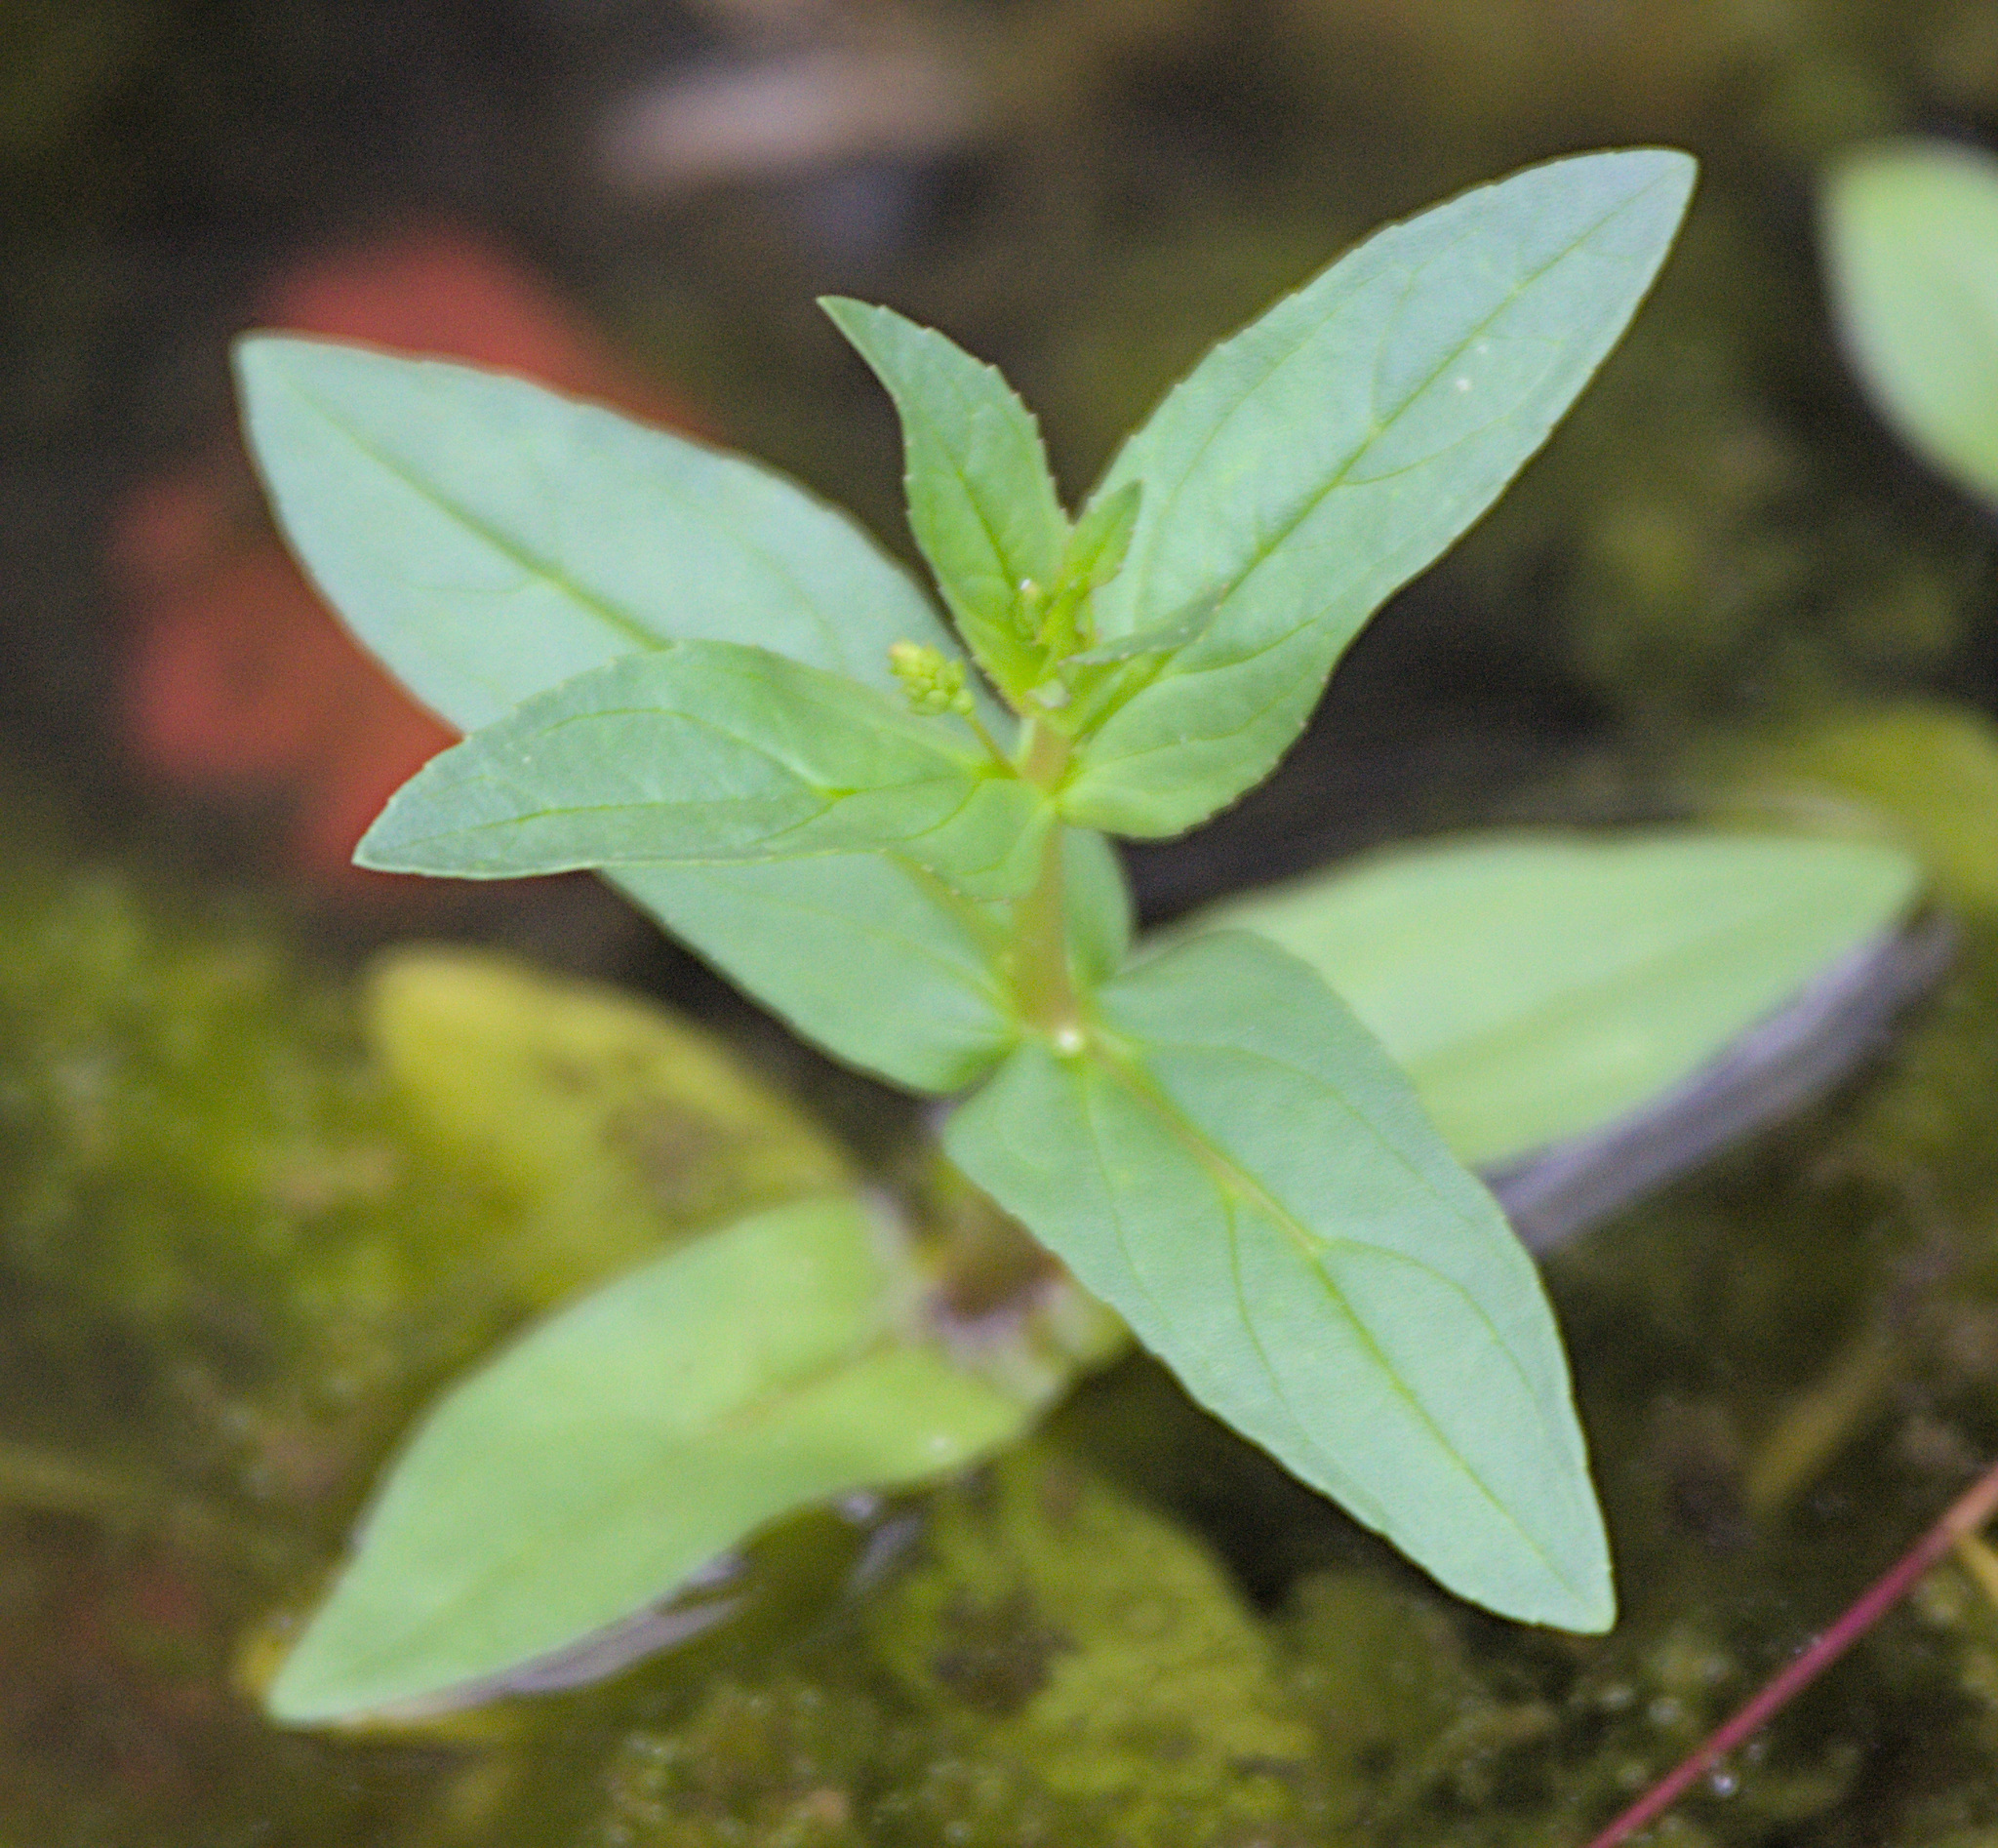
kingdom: Plantae
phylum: Tracheophyta
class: Magnoliopsida
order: Lamiales
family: Plantaginaceae
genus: Veronica
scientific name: Veronica anagallis-aquatica
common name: Water speedwell
